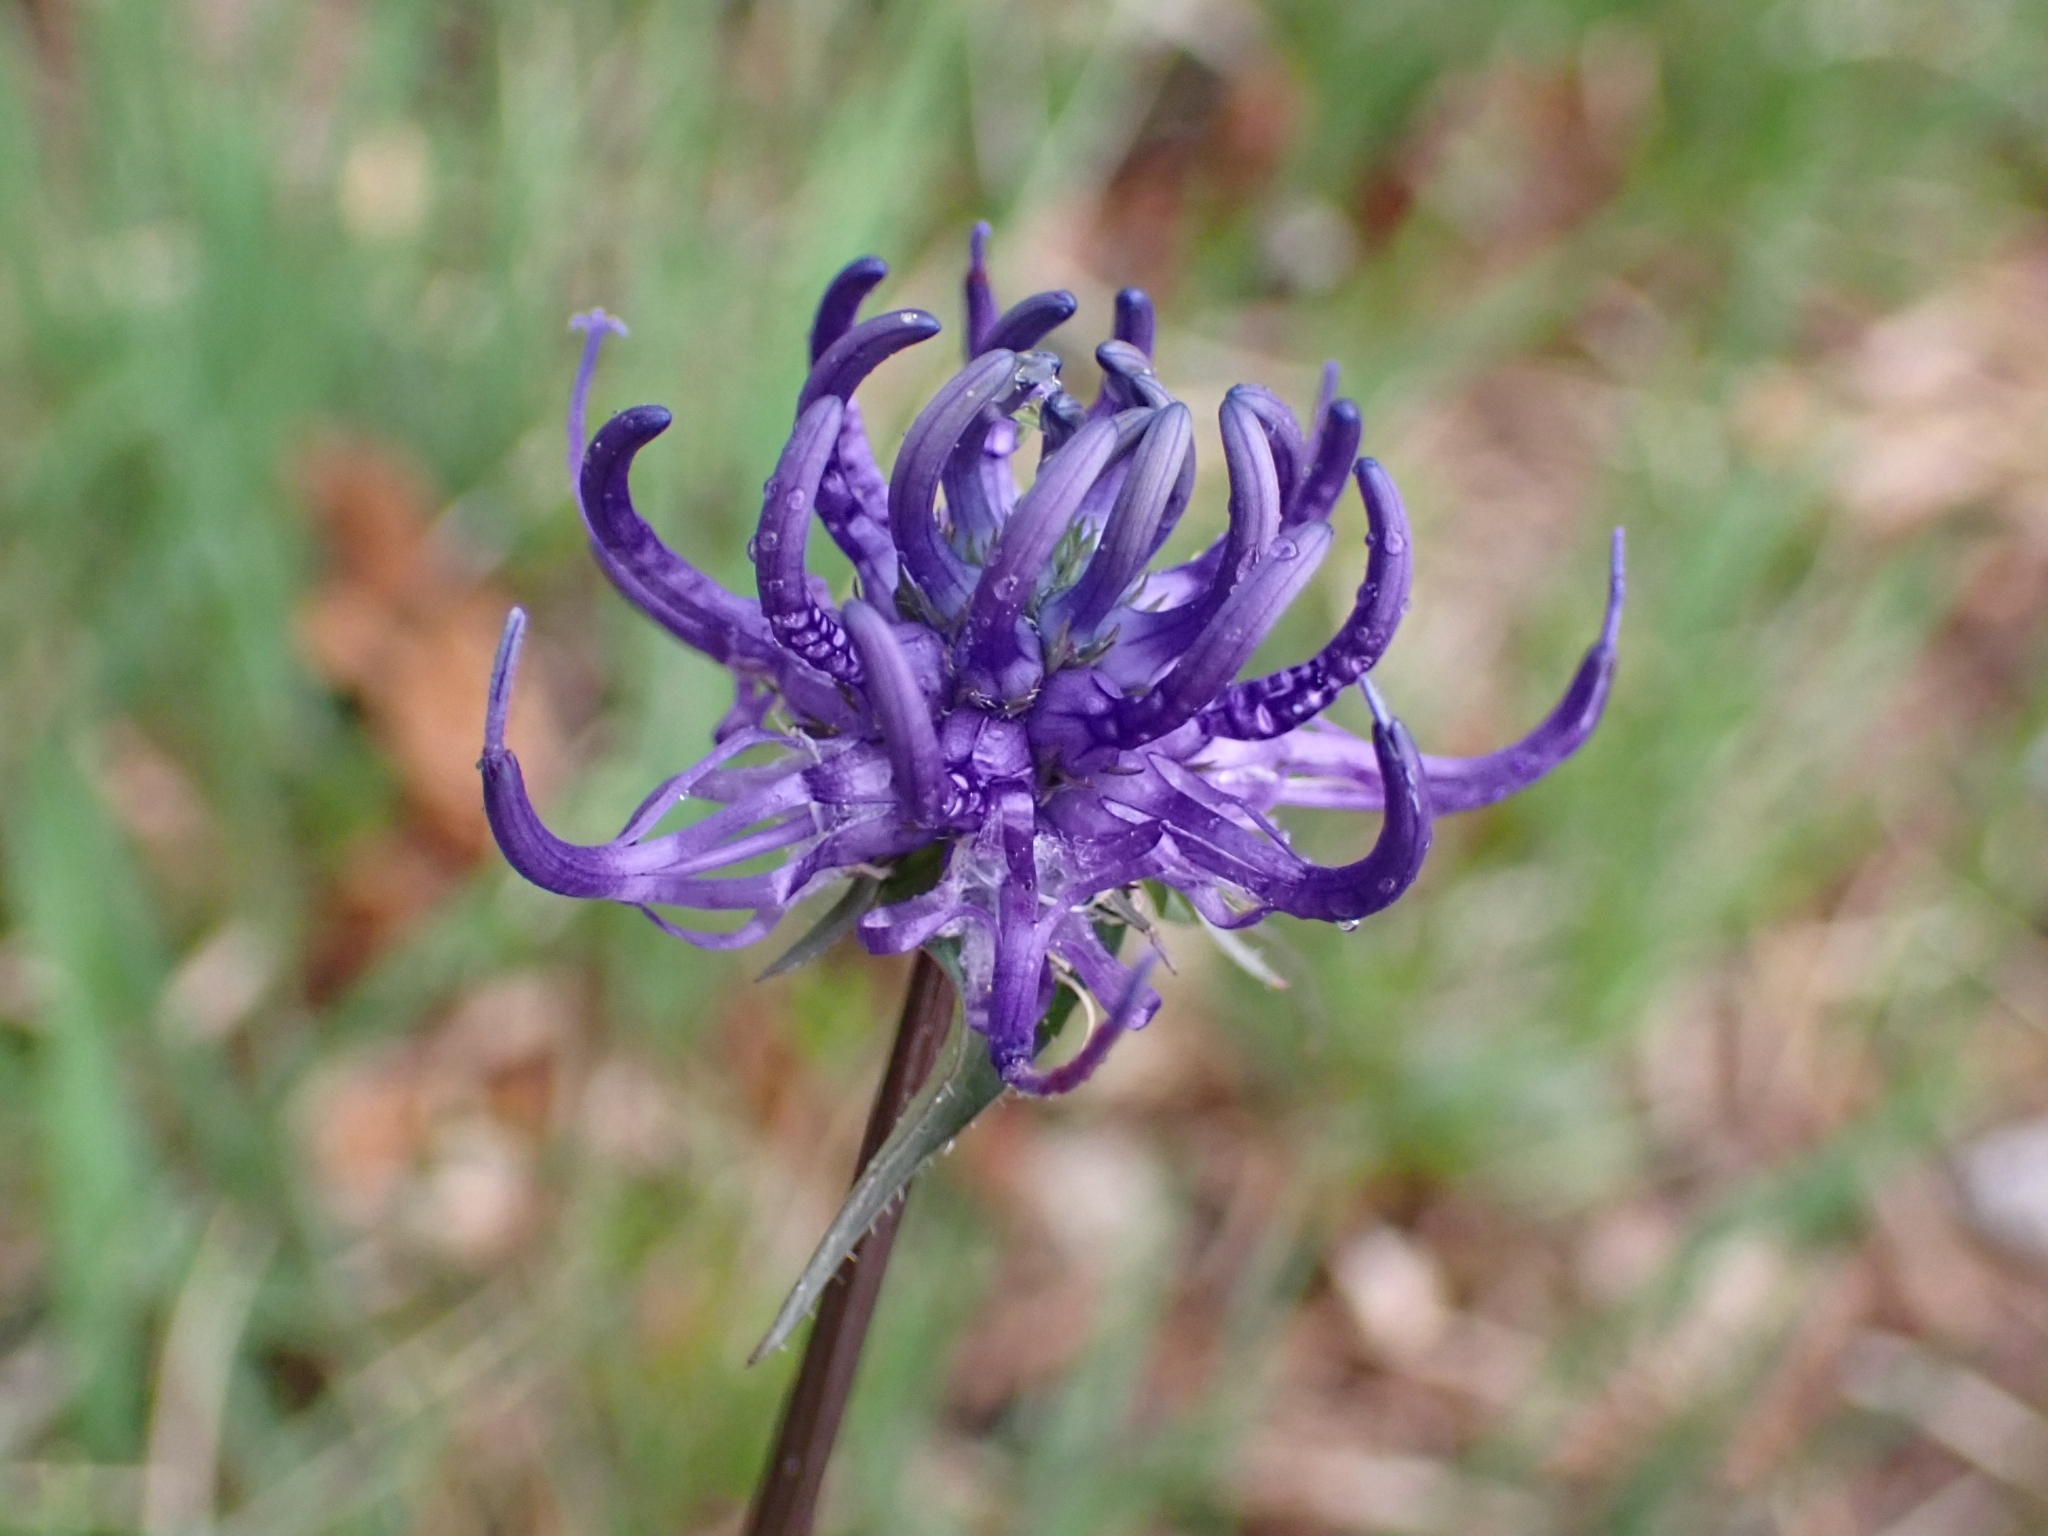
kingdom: Plantae
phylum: Tracheophyta
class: Magnoliopsida
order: Asterales
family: Campanulaceae
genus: Phyteuma
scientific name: Phyteuma orbiculare
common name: Round-headed rampion
